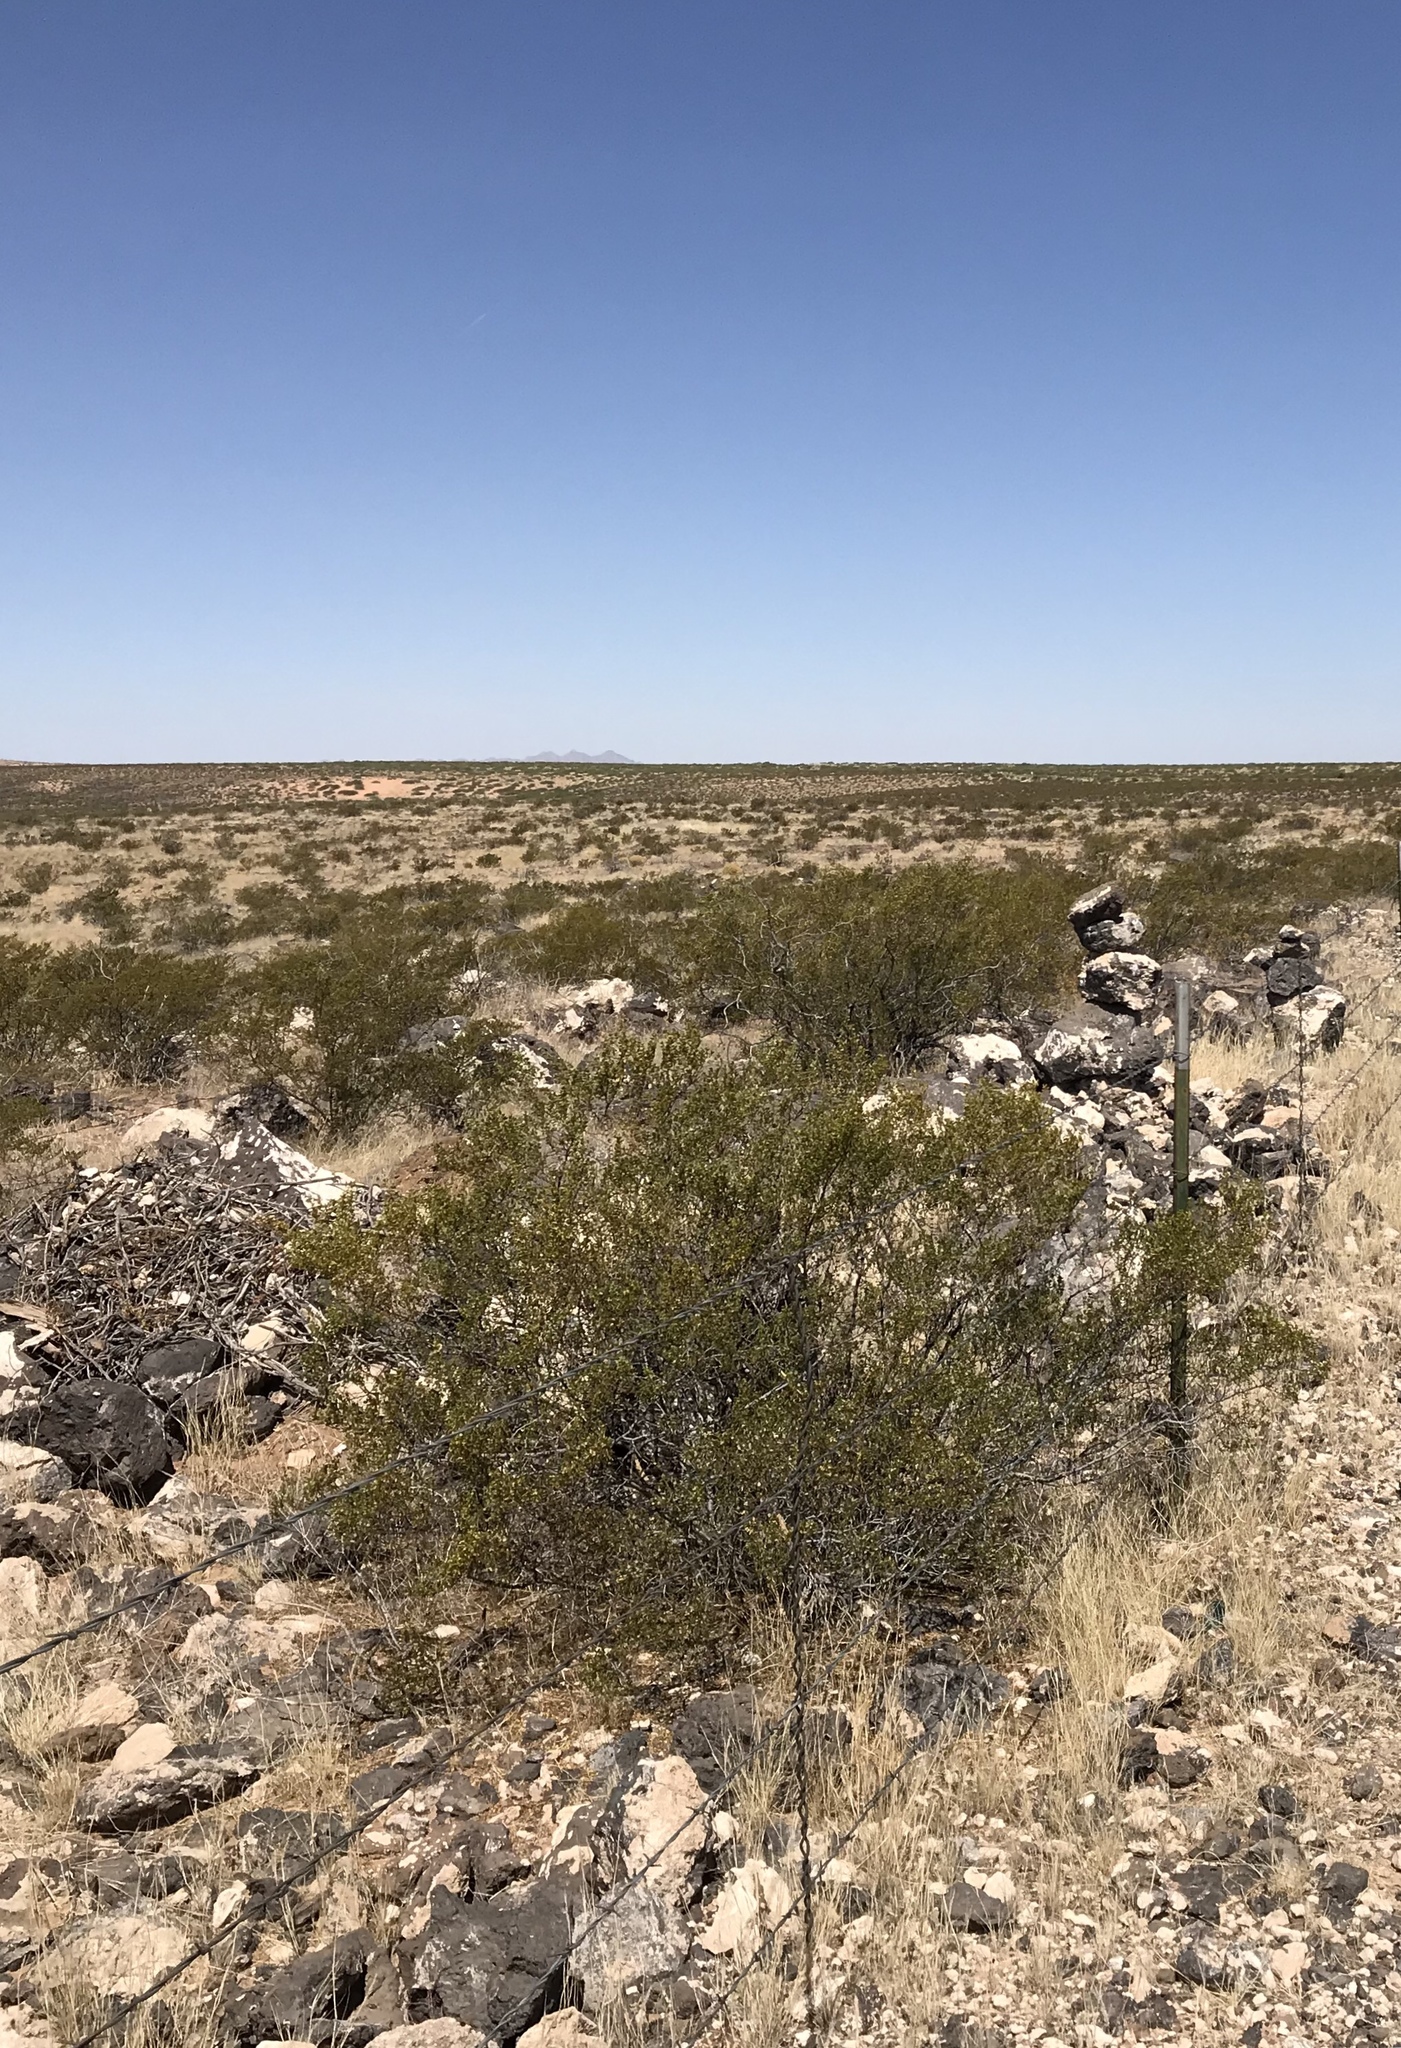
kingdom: Plantae
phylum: Tracheophyta
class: Magnoliopsida
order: Zygophyllales
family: Zygophyllaceae
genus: Larrea
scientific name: Larrea tridentata
